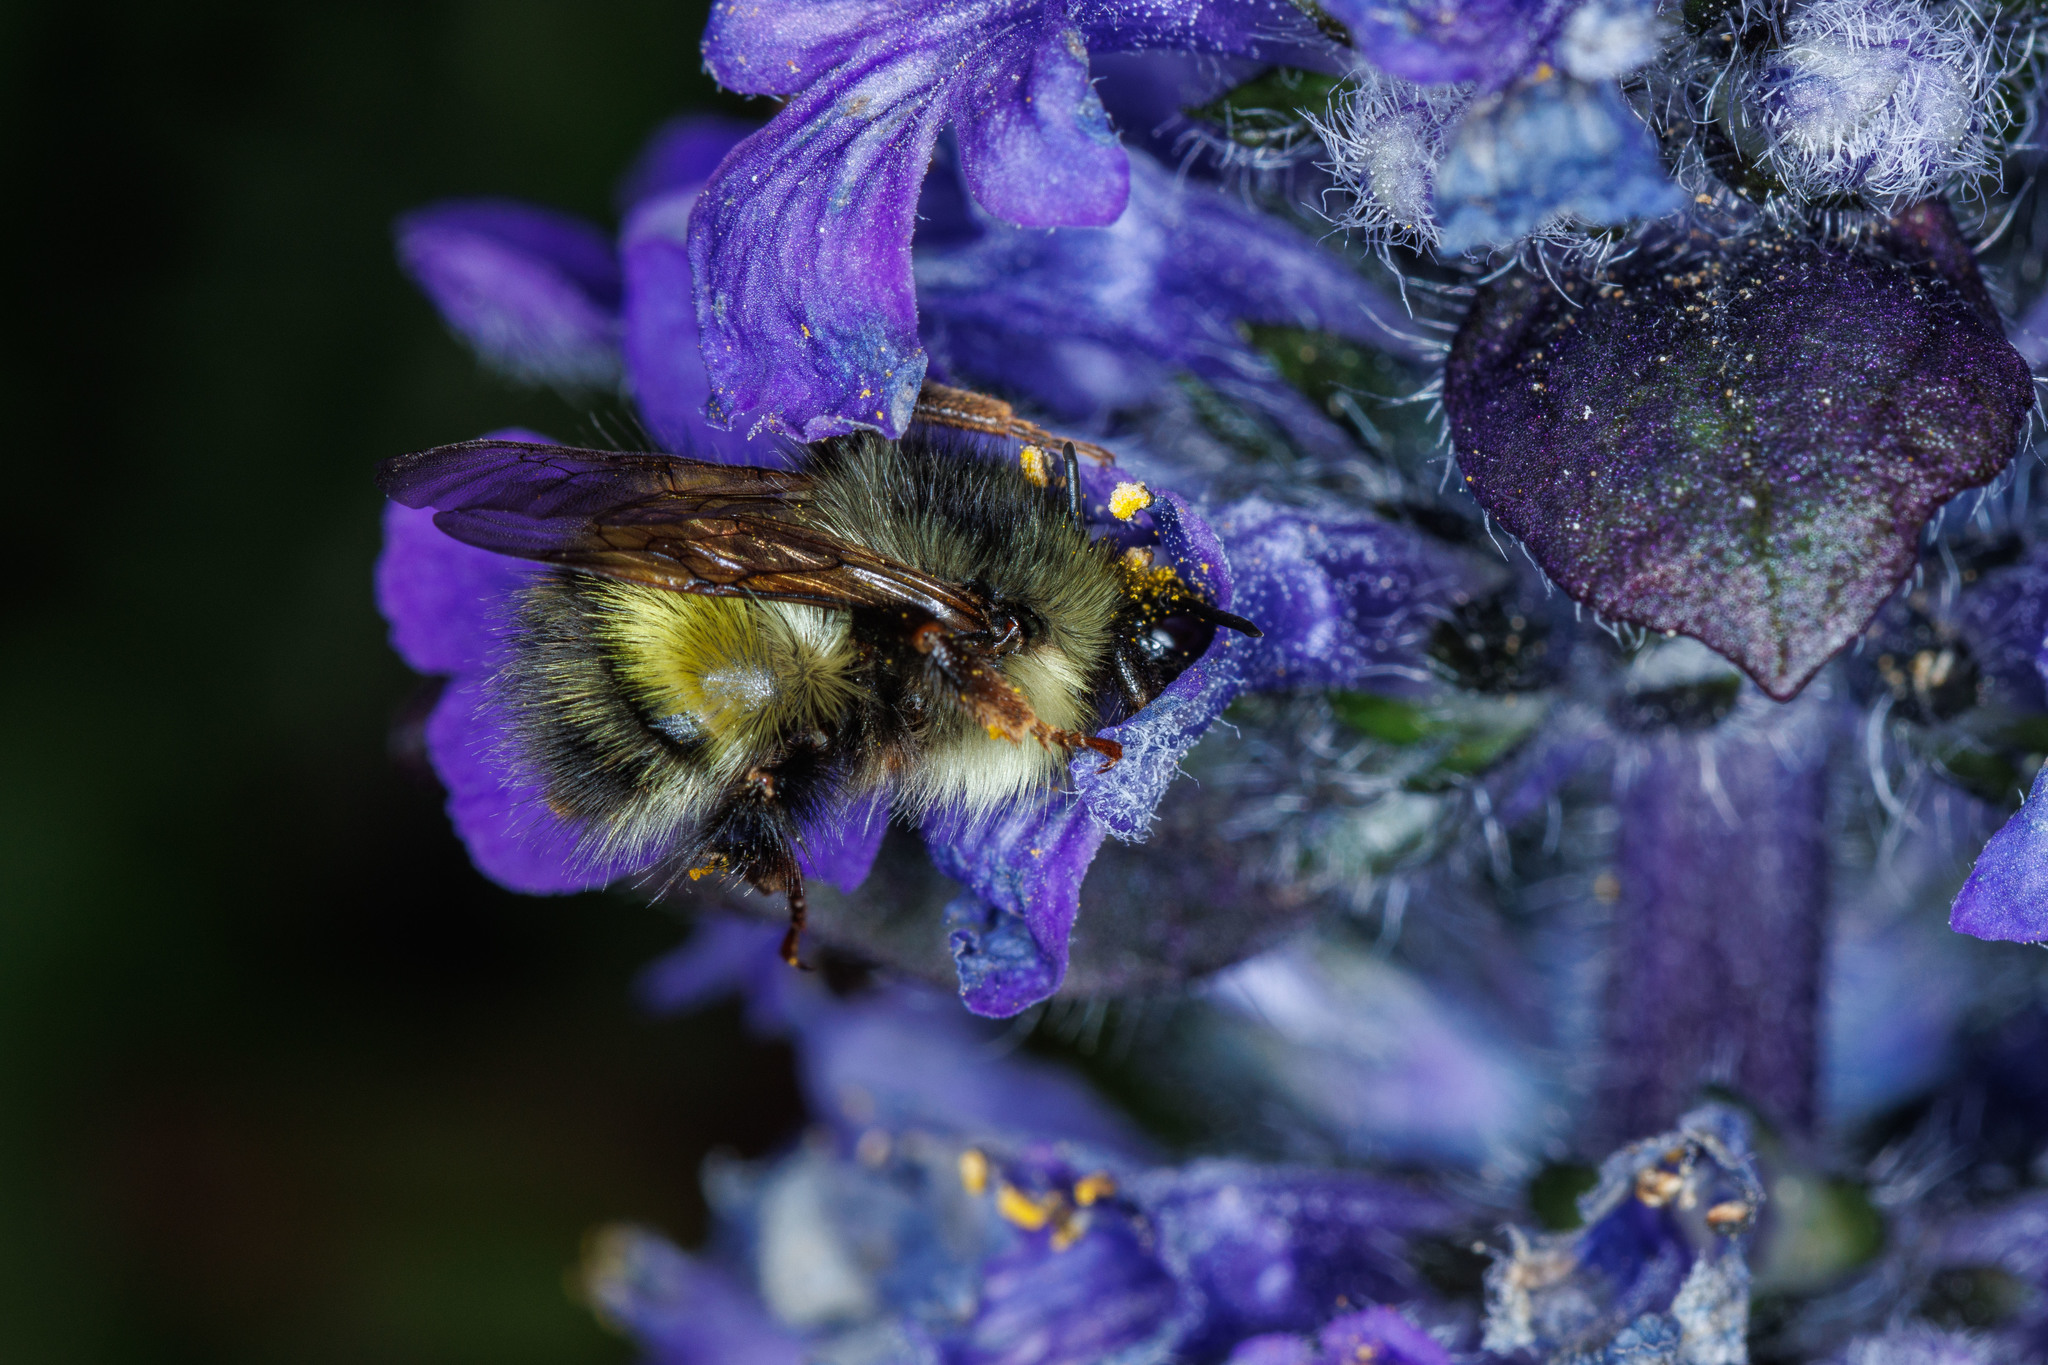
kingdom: Animalia
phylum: Arthropoda
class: Insecta
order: Hymenoptera
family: Apidae
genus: Bombus
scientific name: Bombus flavifrons
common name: Yellow head bumble bee
